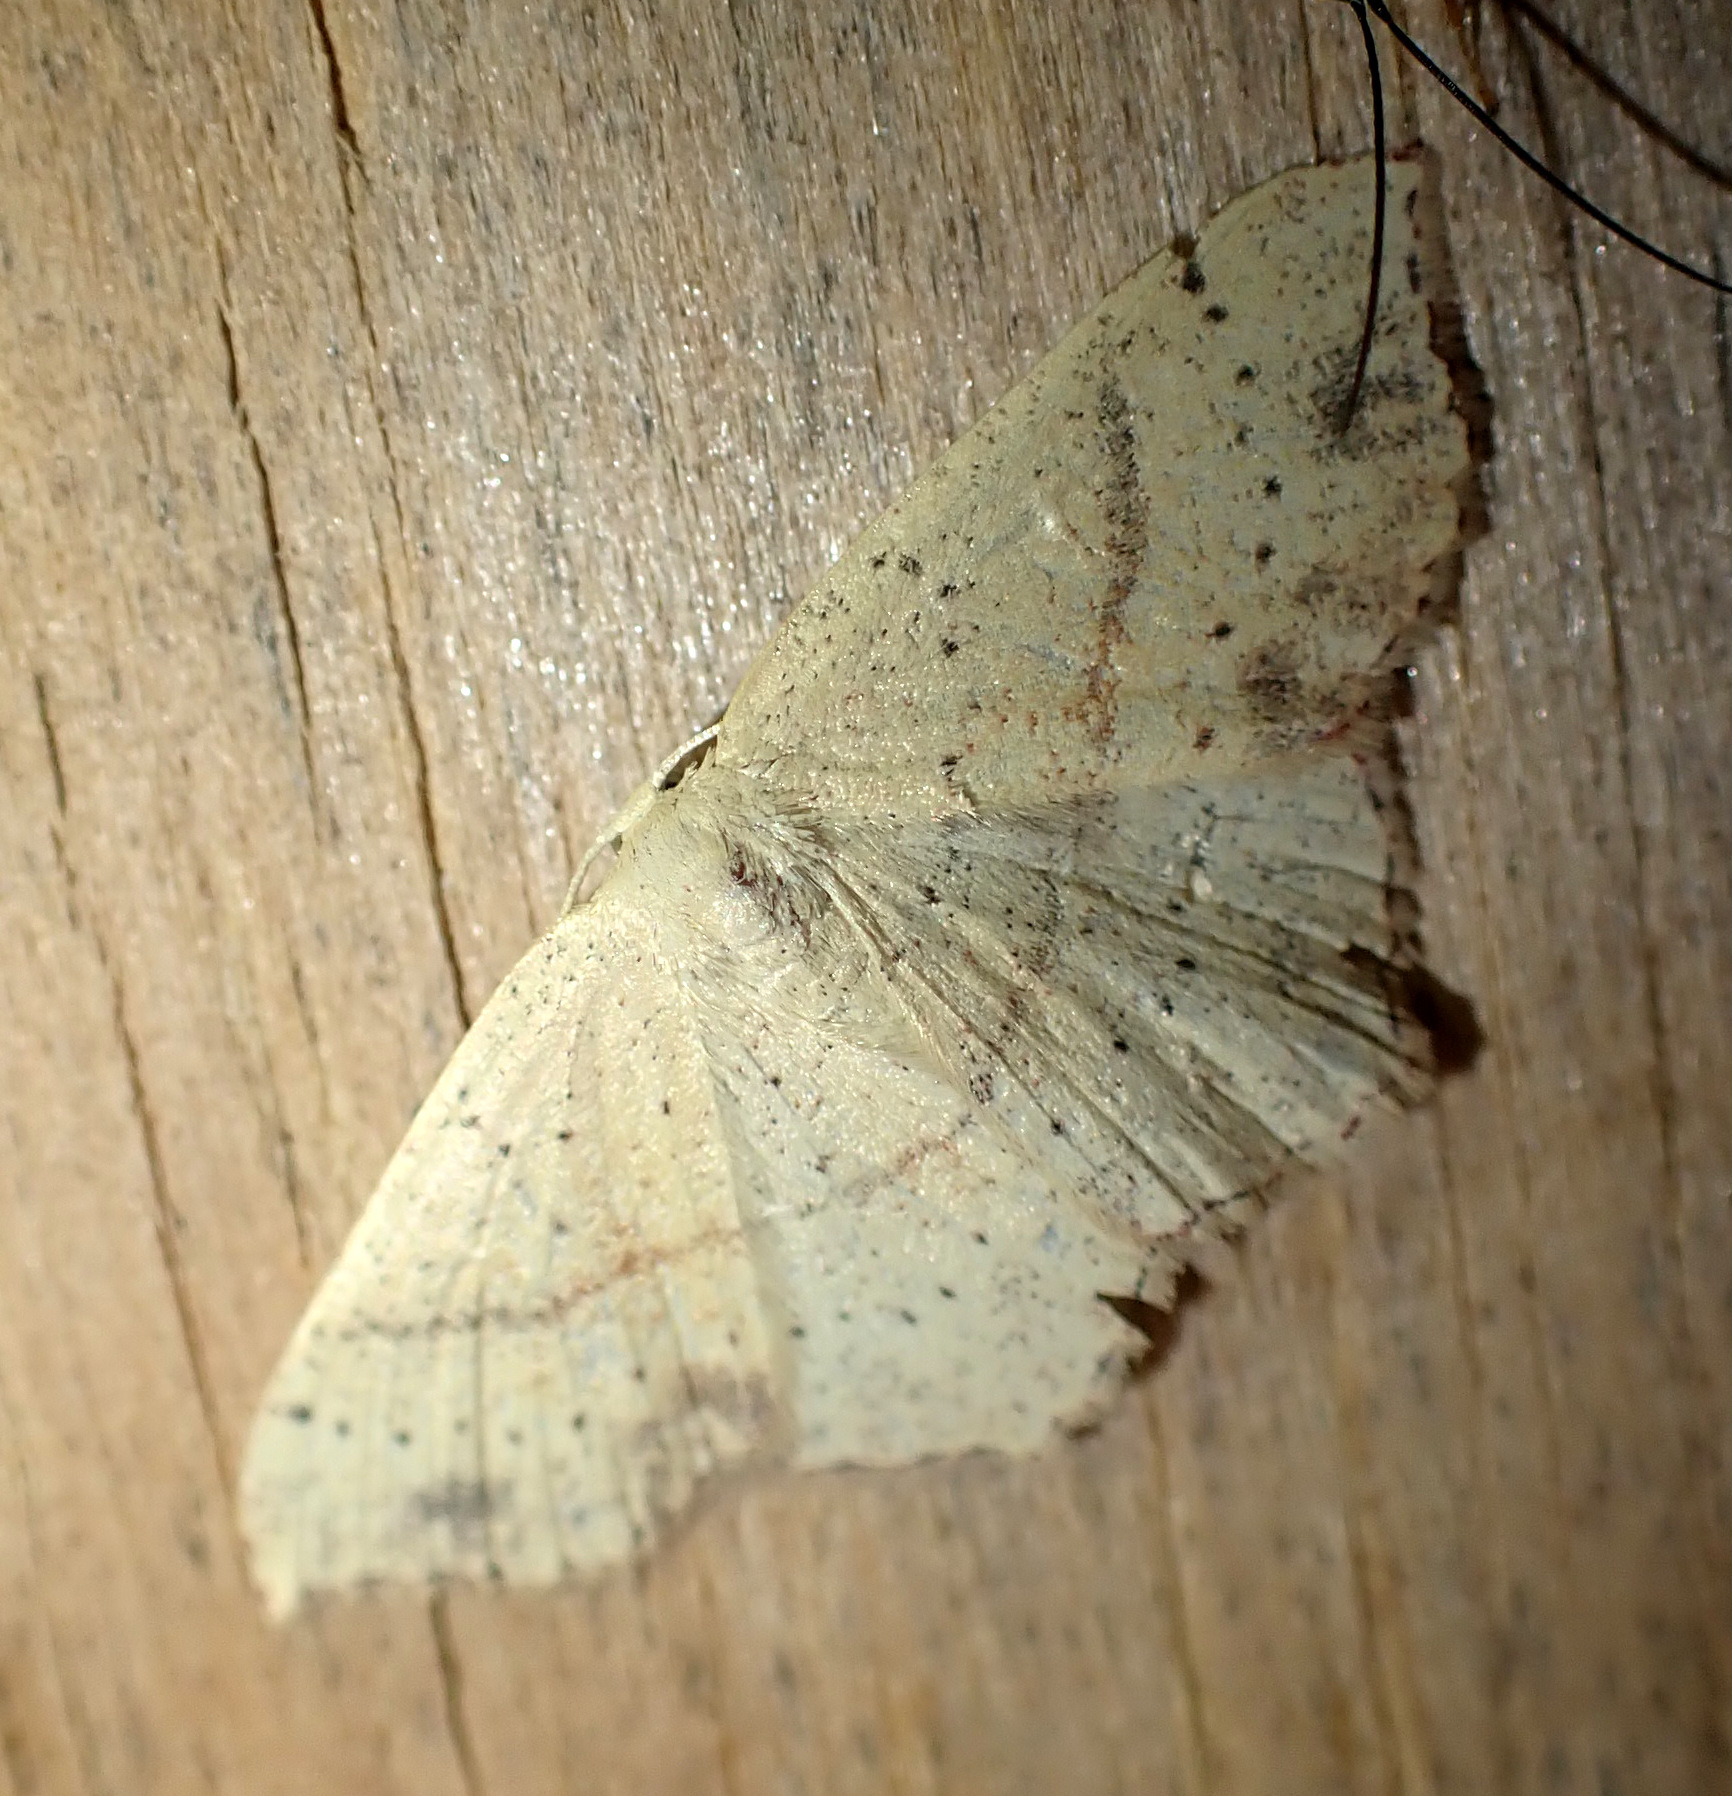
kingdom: Animalia
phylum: Arthropoda
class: Insecta
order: Lepidoptera
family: Geometridae
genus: Cyclophora
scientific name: Cyclophora punctaria
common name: Maiden's blush
